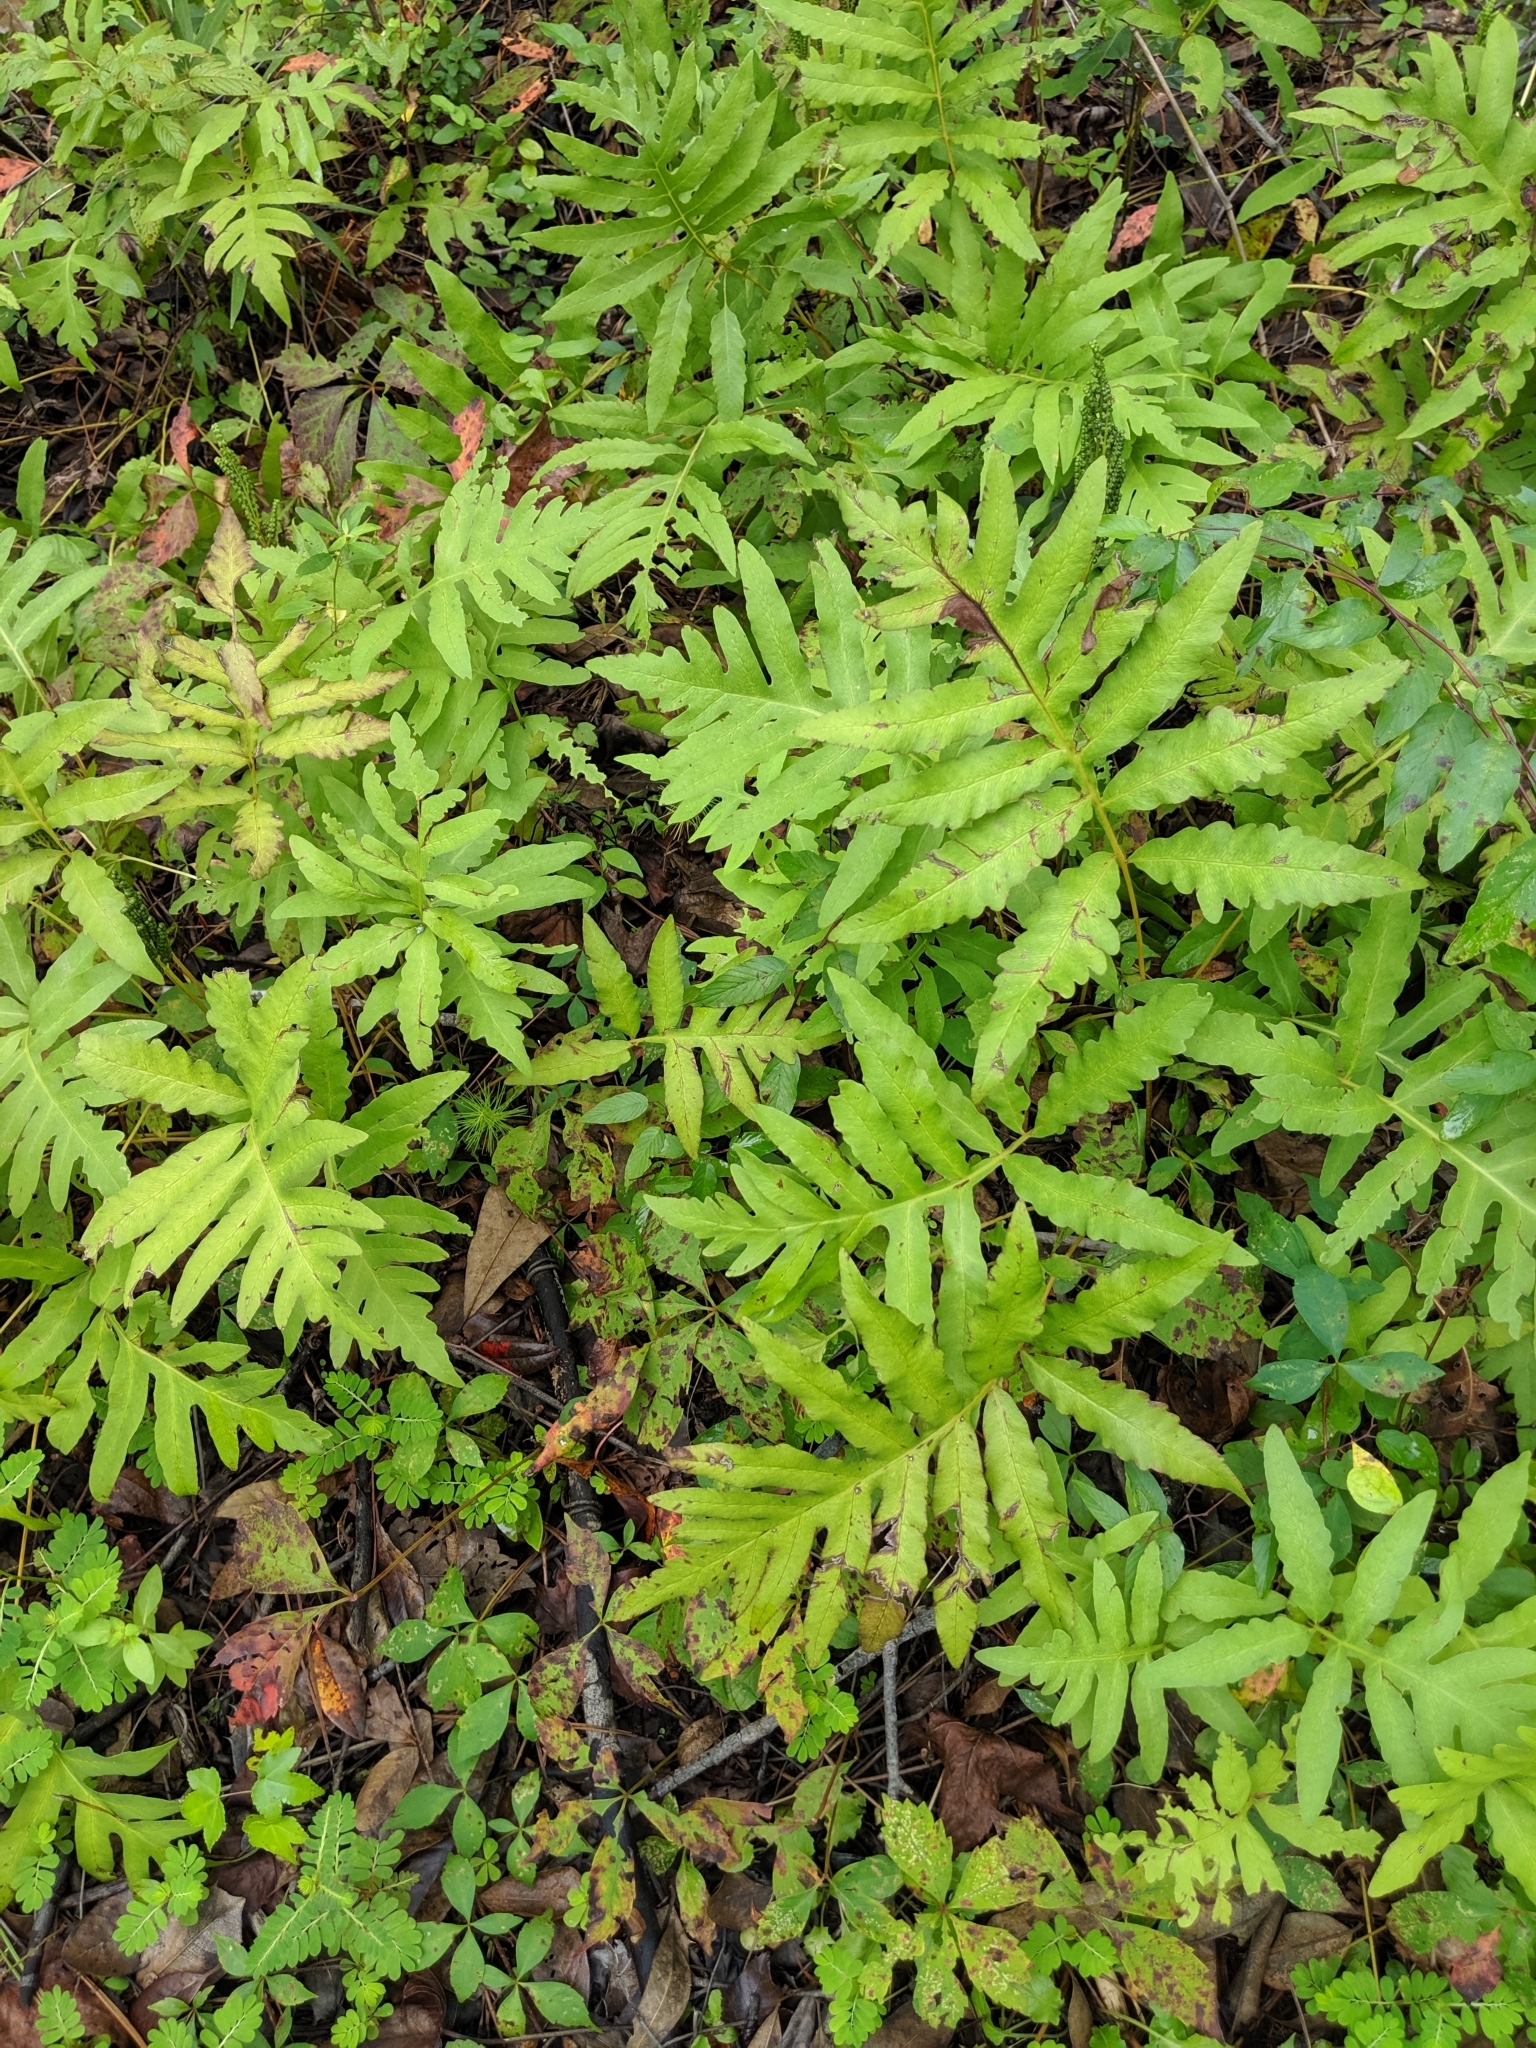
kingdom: Plantae
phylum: Tracheophyta
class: Polypodiopsida
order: Polypodiales
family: Onocleaceae
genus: Onoclea
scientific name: Onoclea sensibilis
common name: Sensitive fern
